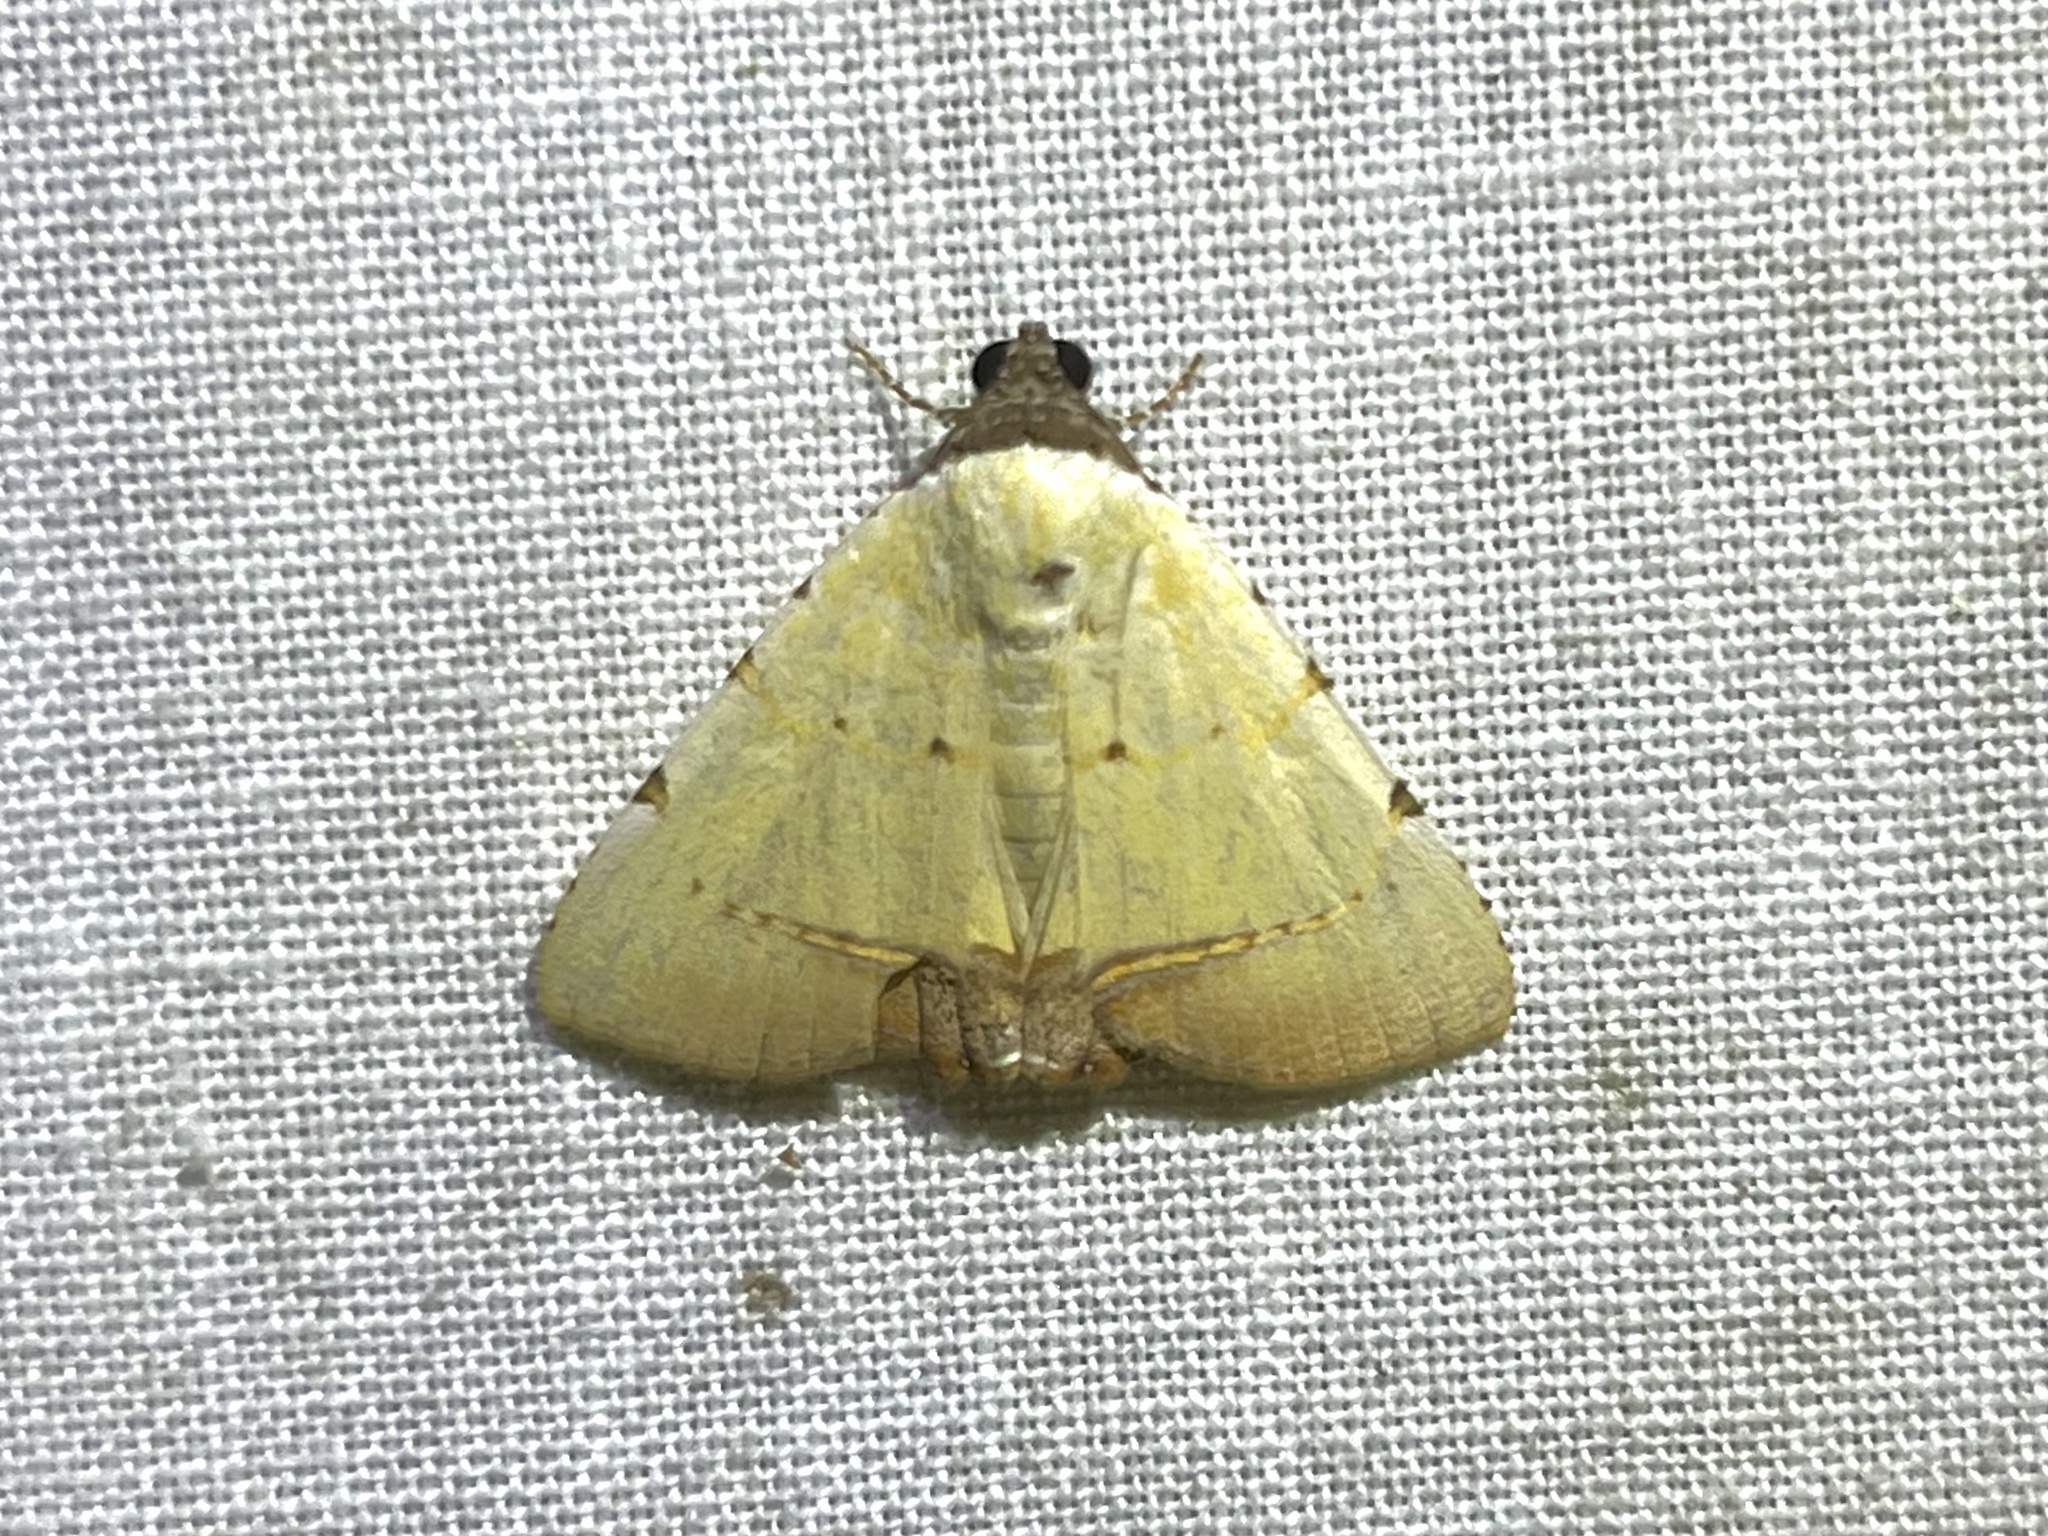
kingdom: Animalia
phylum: Arthropoda
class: Insecta
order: Lepidoptera
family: Erebidae
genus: Eulepidotis
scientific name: Eulepidotis micca
